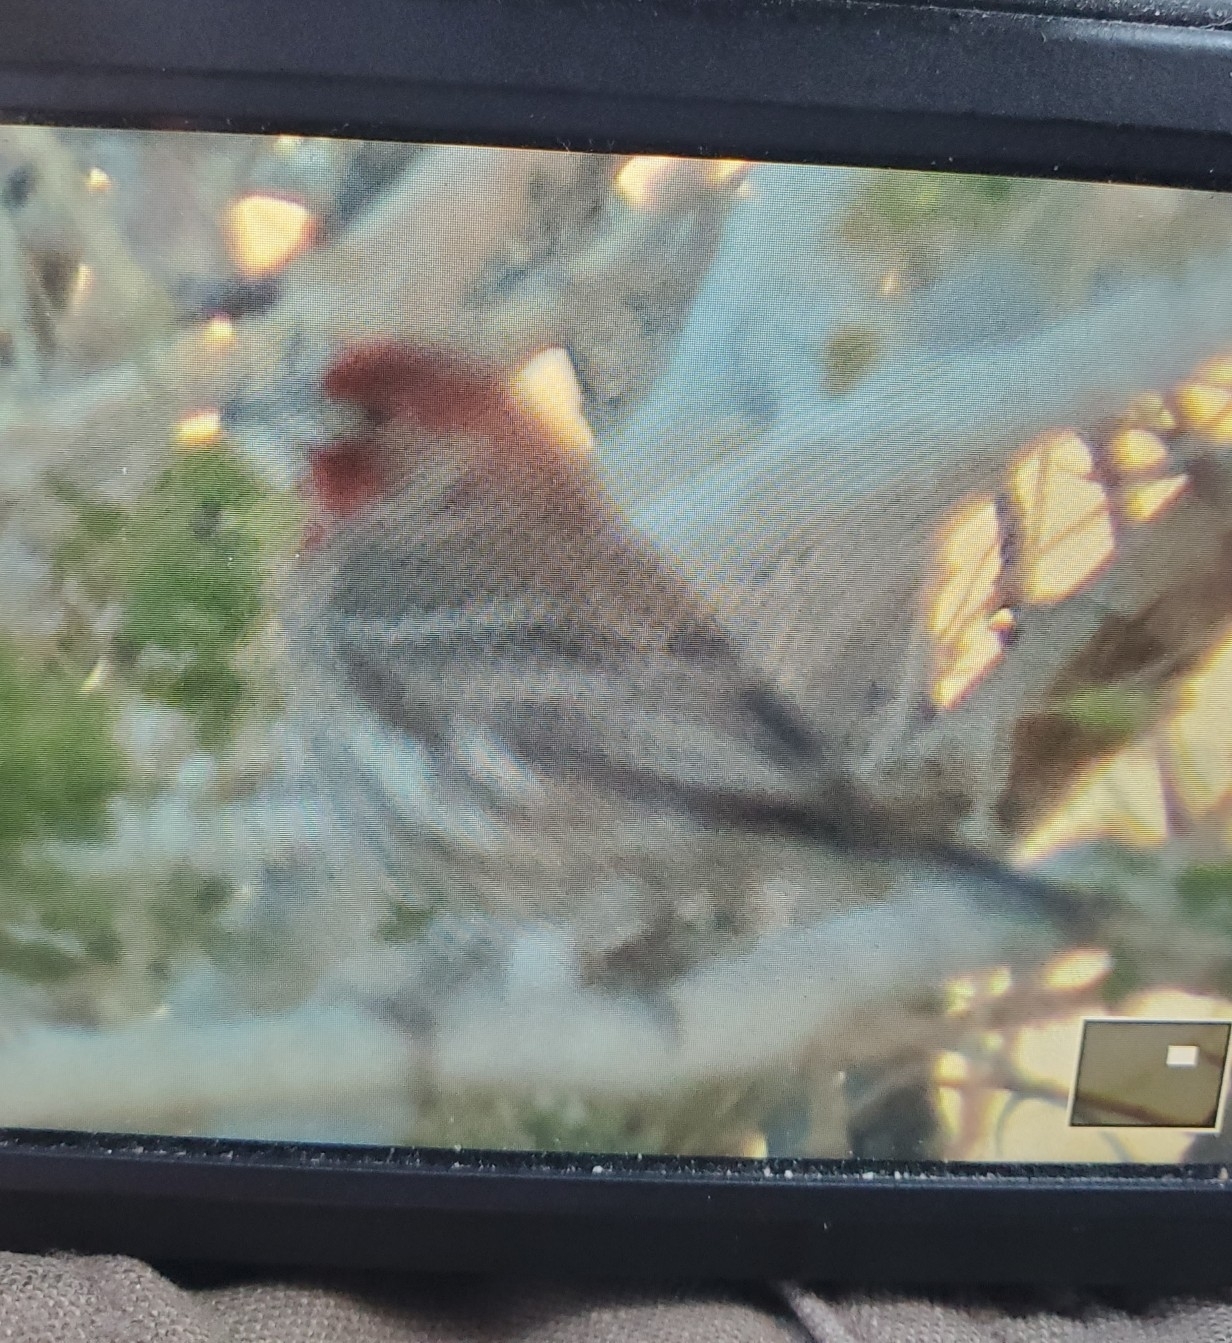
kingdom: Animalia
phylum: Chordata
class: Aves
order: Passeriformes
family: Fringillidae
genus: Haemorhous
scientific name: Haemorhous mexicanus
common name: House finch
